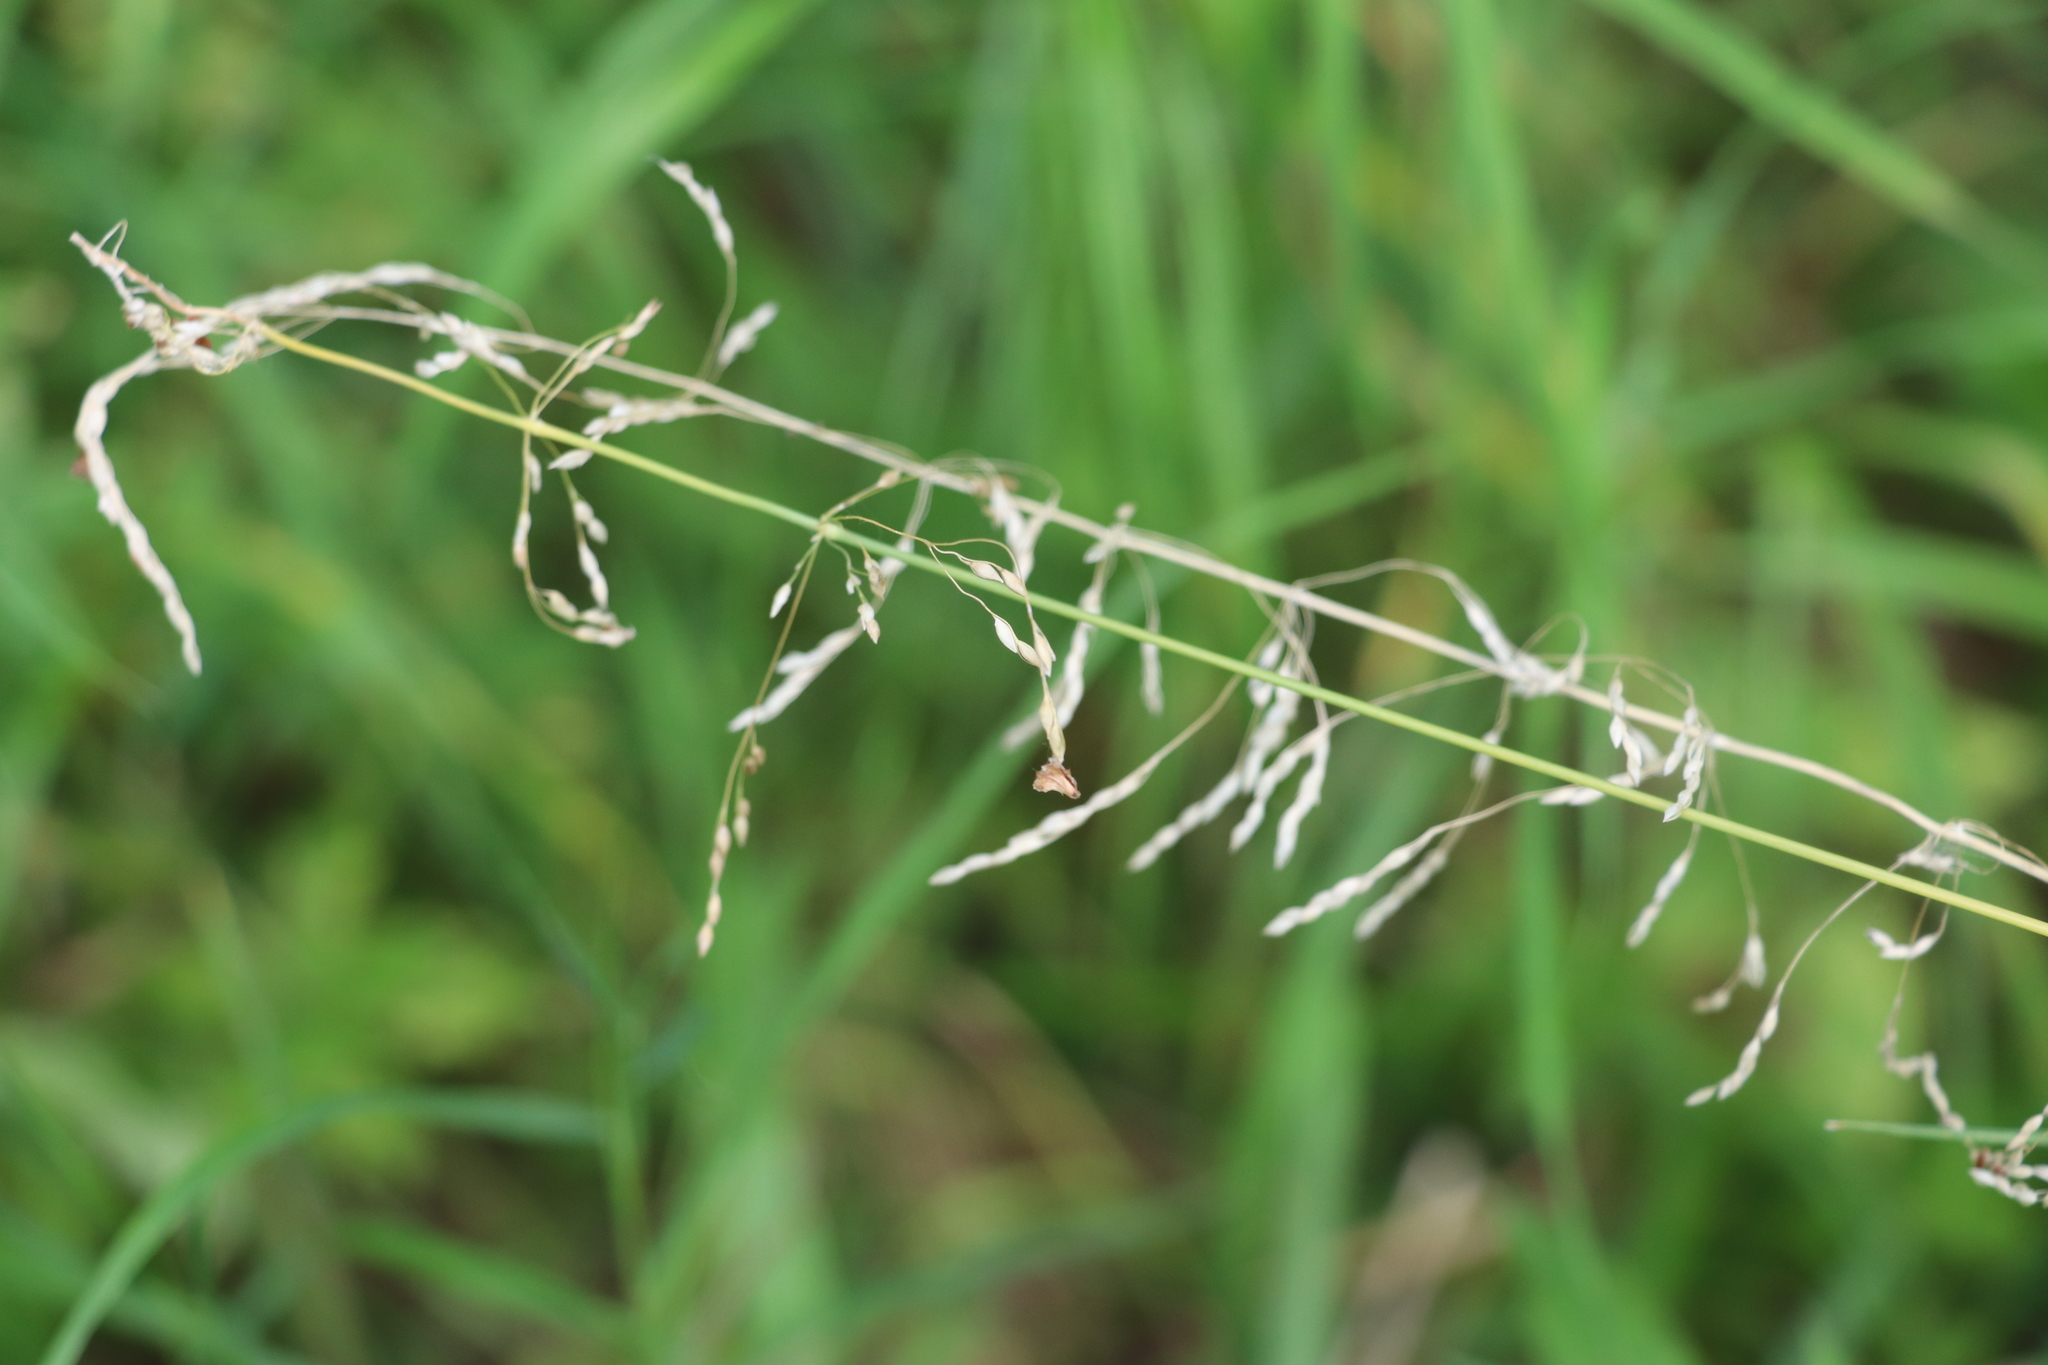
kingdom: Plantae
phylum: Tracheophyta
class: Liliopsida
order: Poales
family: Poaceae
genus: Milium
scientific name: Milium effusum
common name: Wood millet
